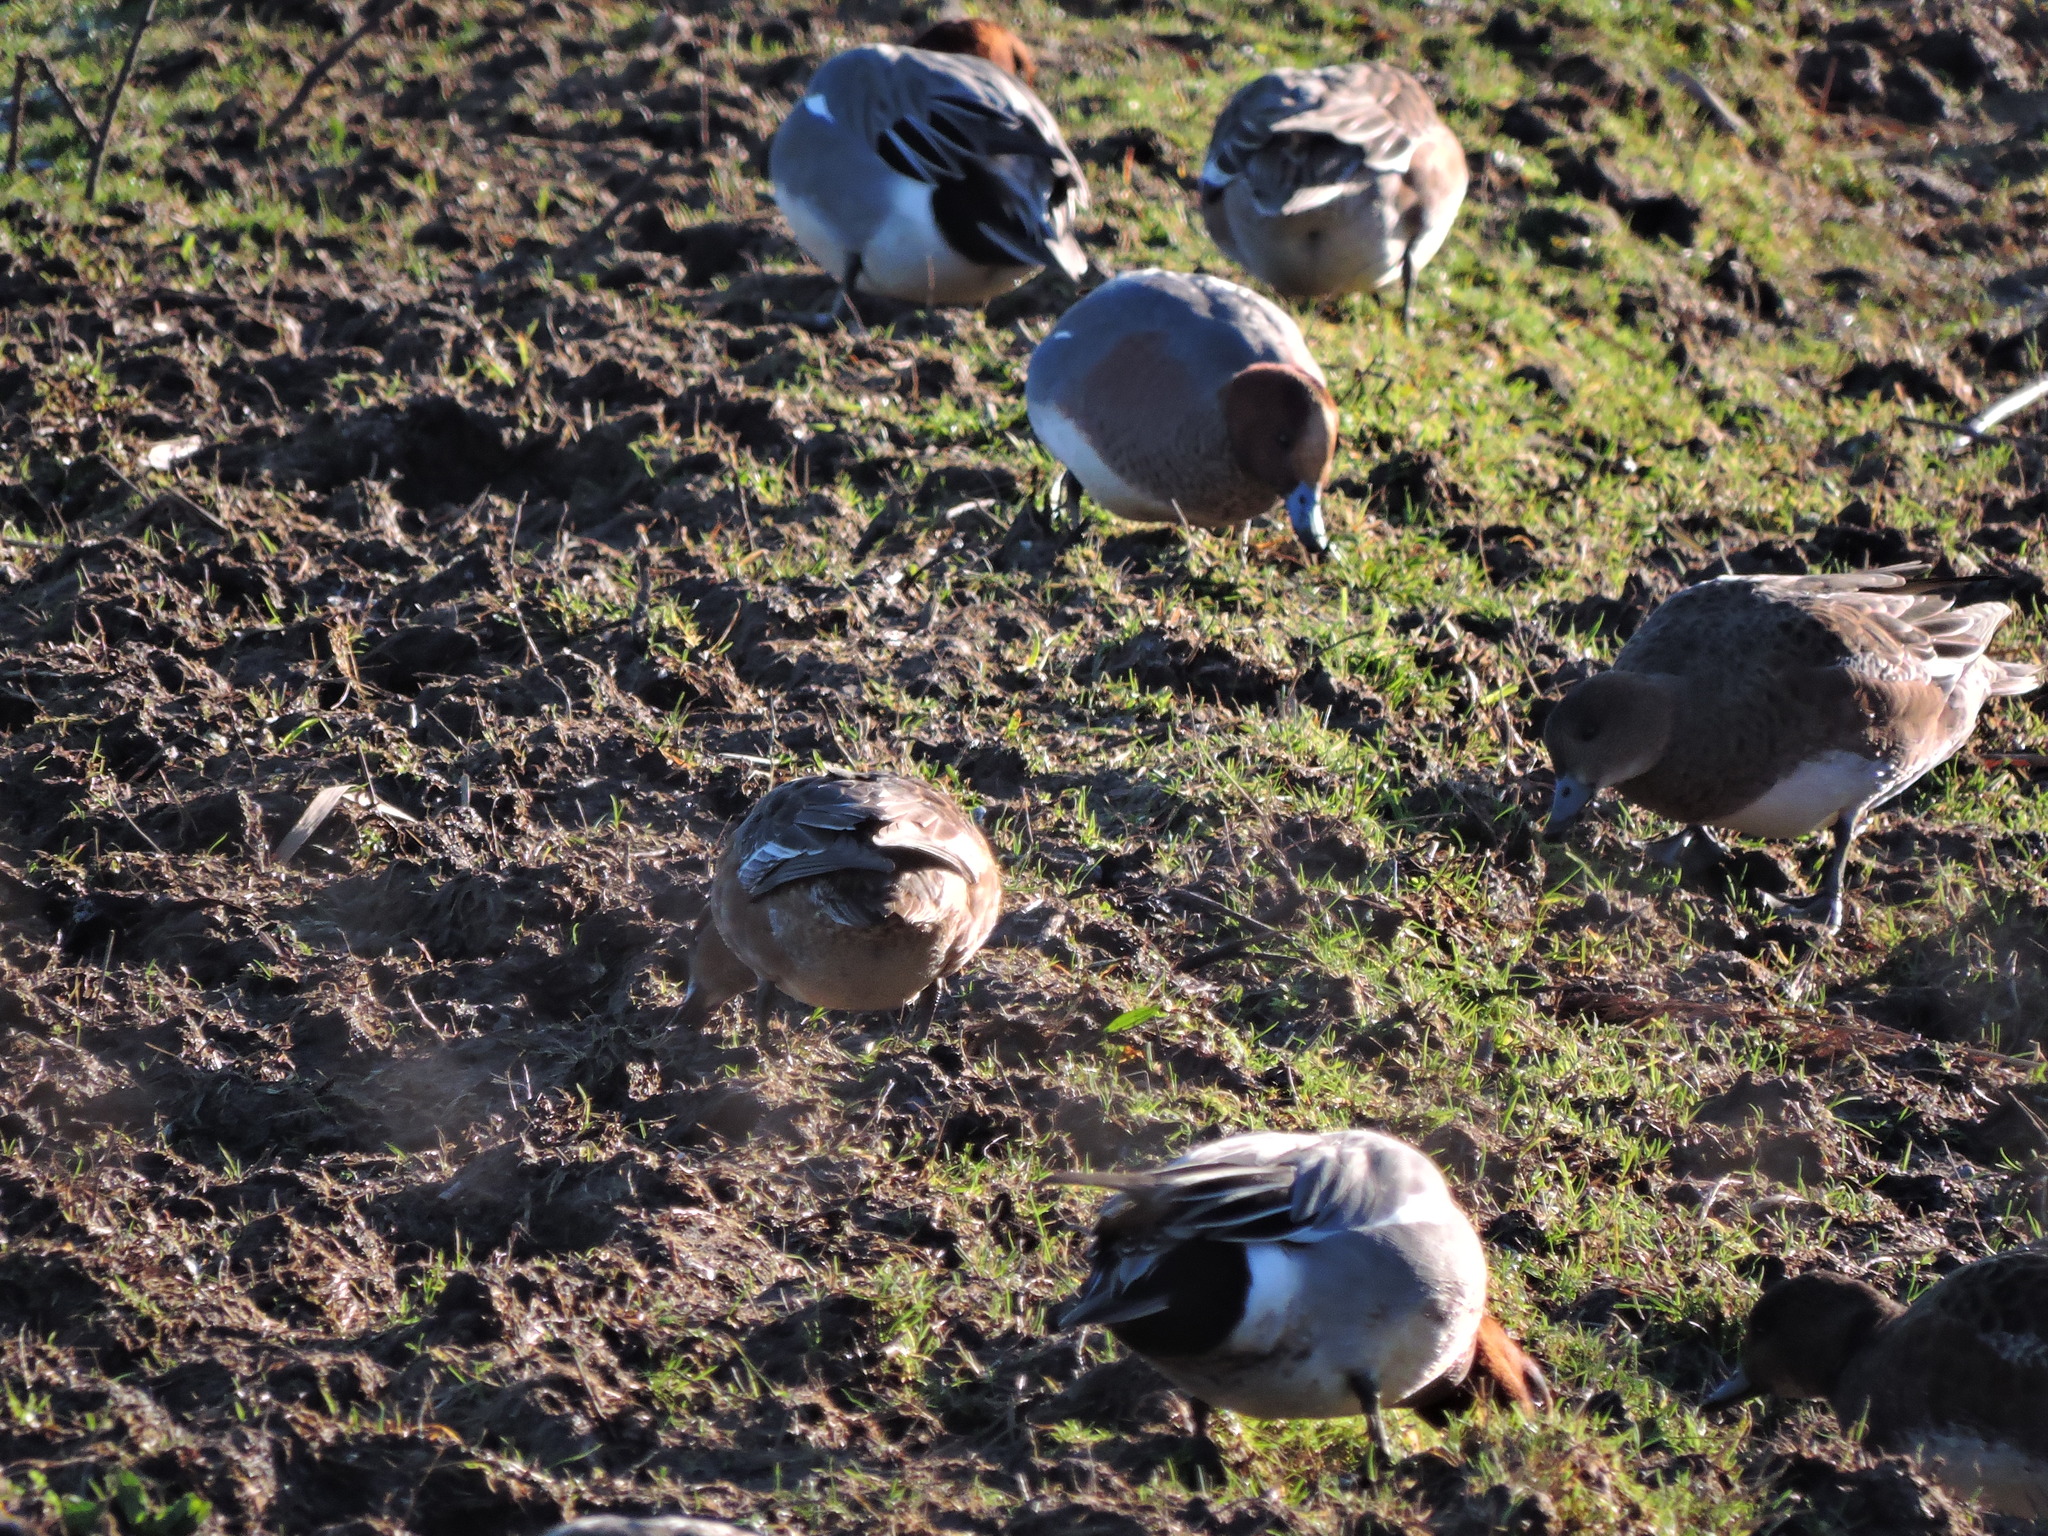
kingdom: Animalia
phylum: Chordata
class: Aves
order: Anseriformes
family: Anatidae
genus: Mareca
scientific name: Mareca penelope
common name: Eurasian wigeon
